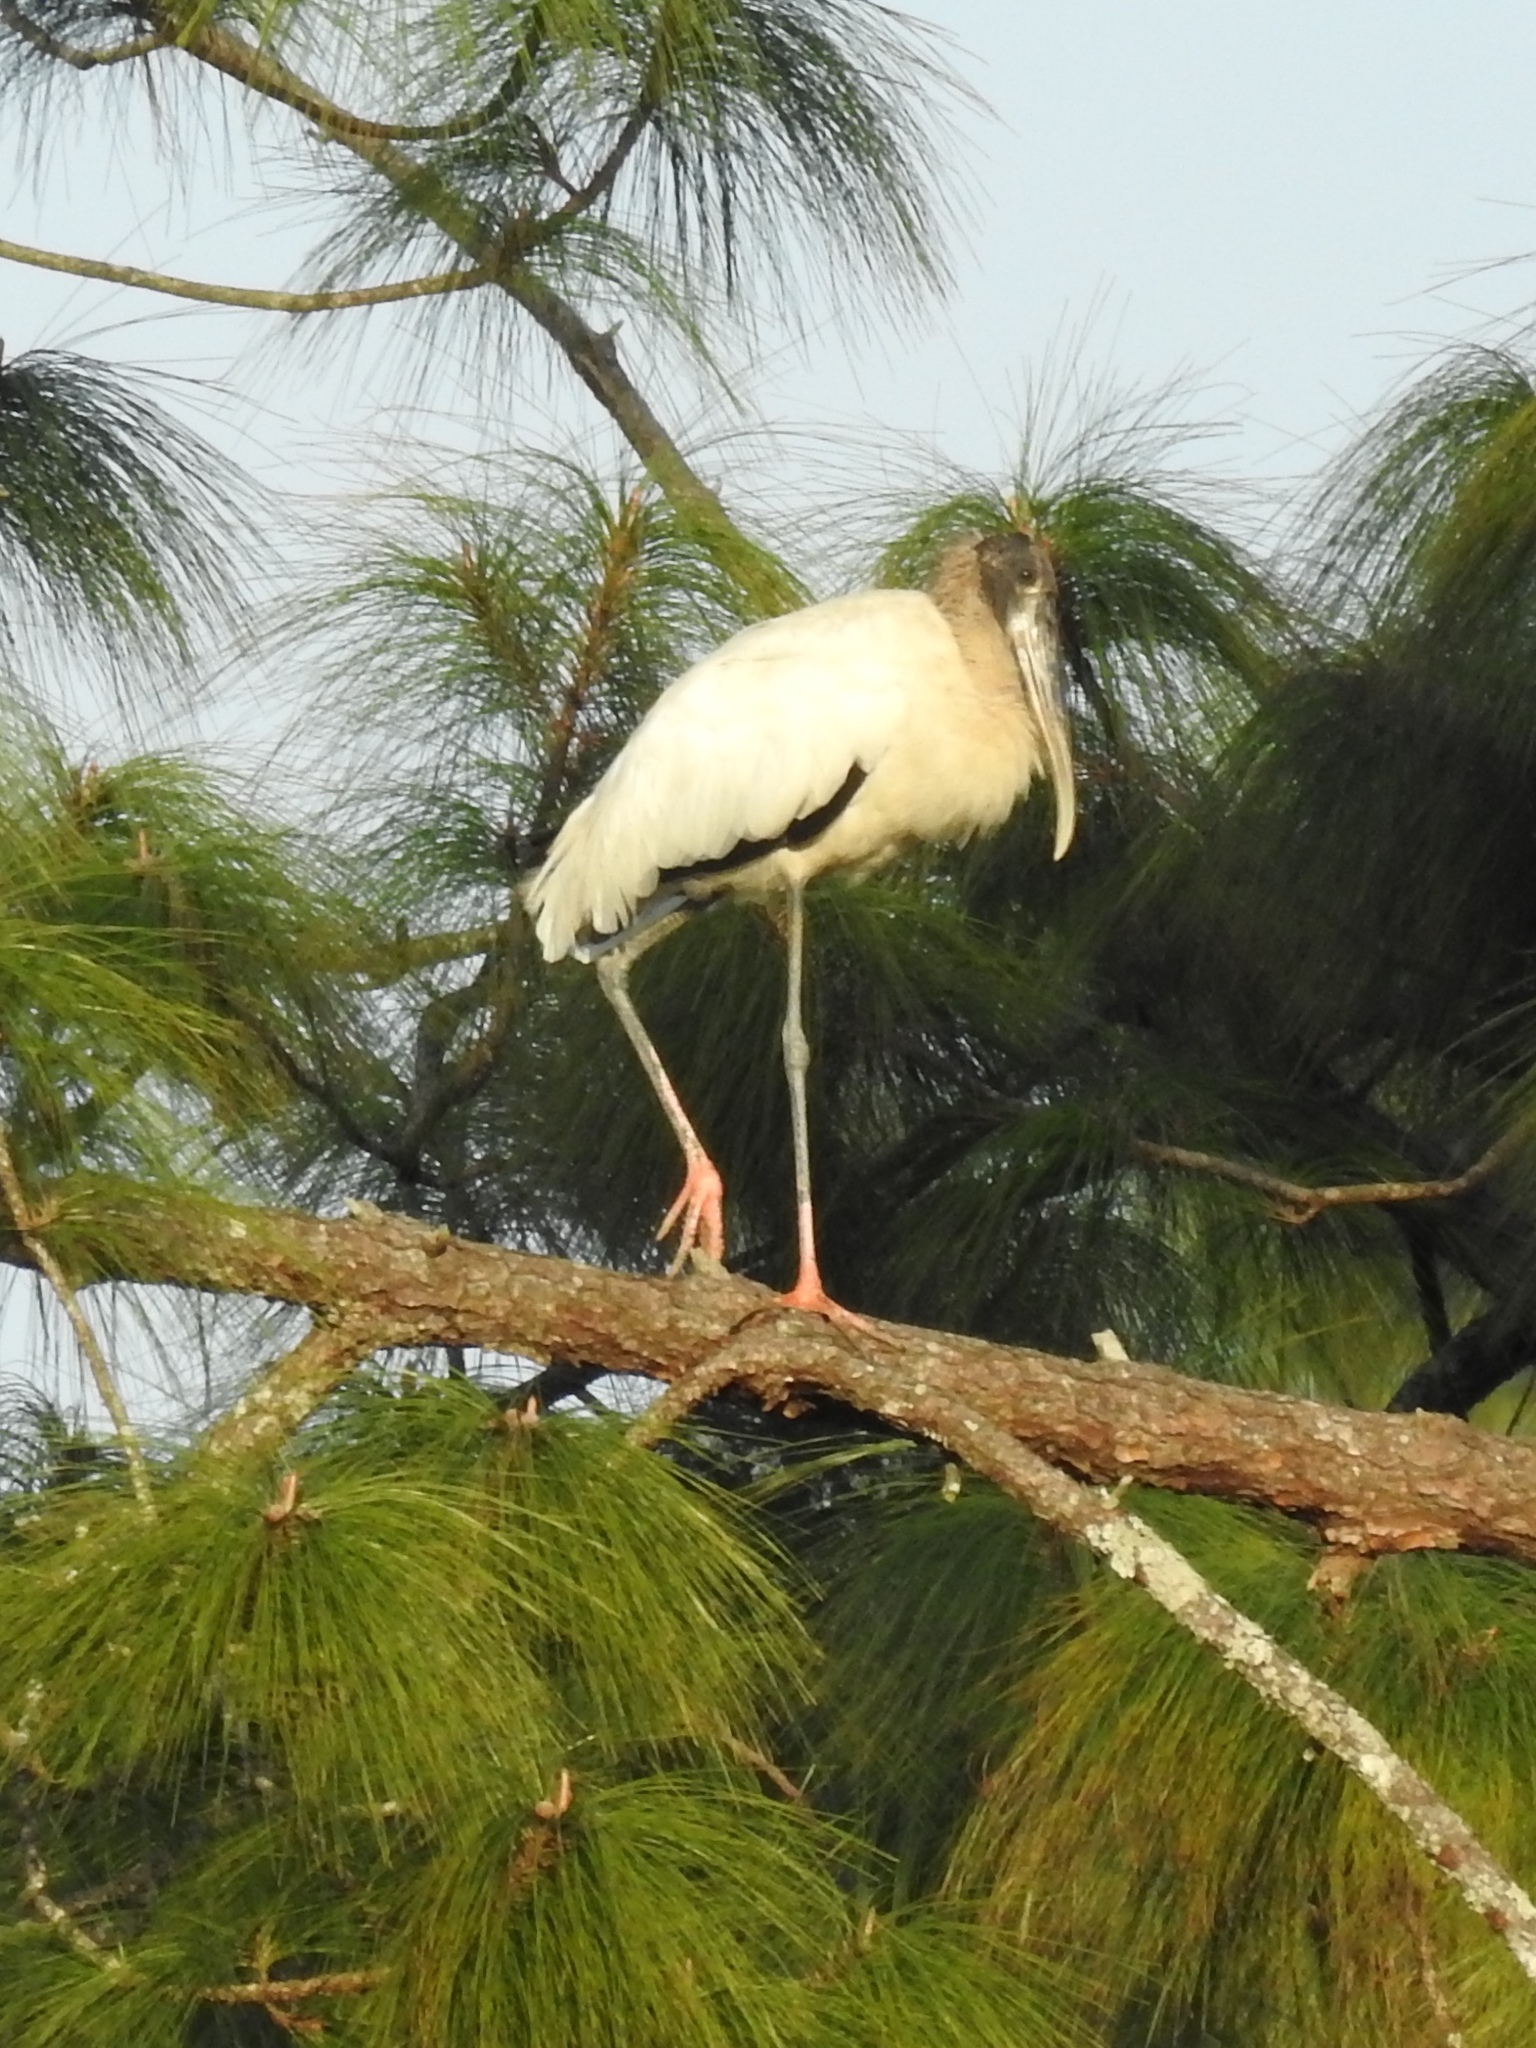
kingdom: Animalia
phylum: Chordata
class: Aves
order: Ciconiiformes
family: Ciconiidae
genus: Mycteria
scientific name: Mycteria americana
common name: Wood stork
